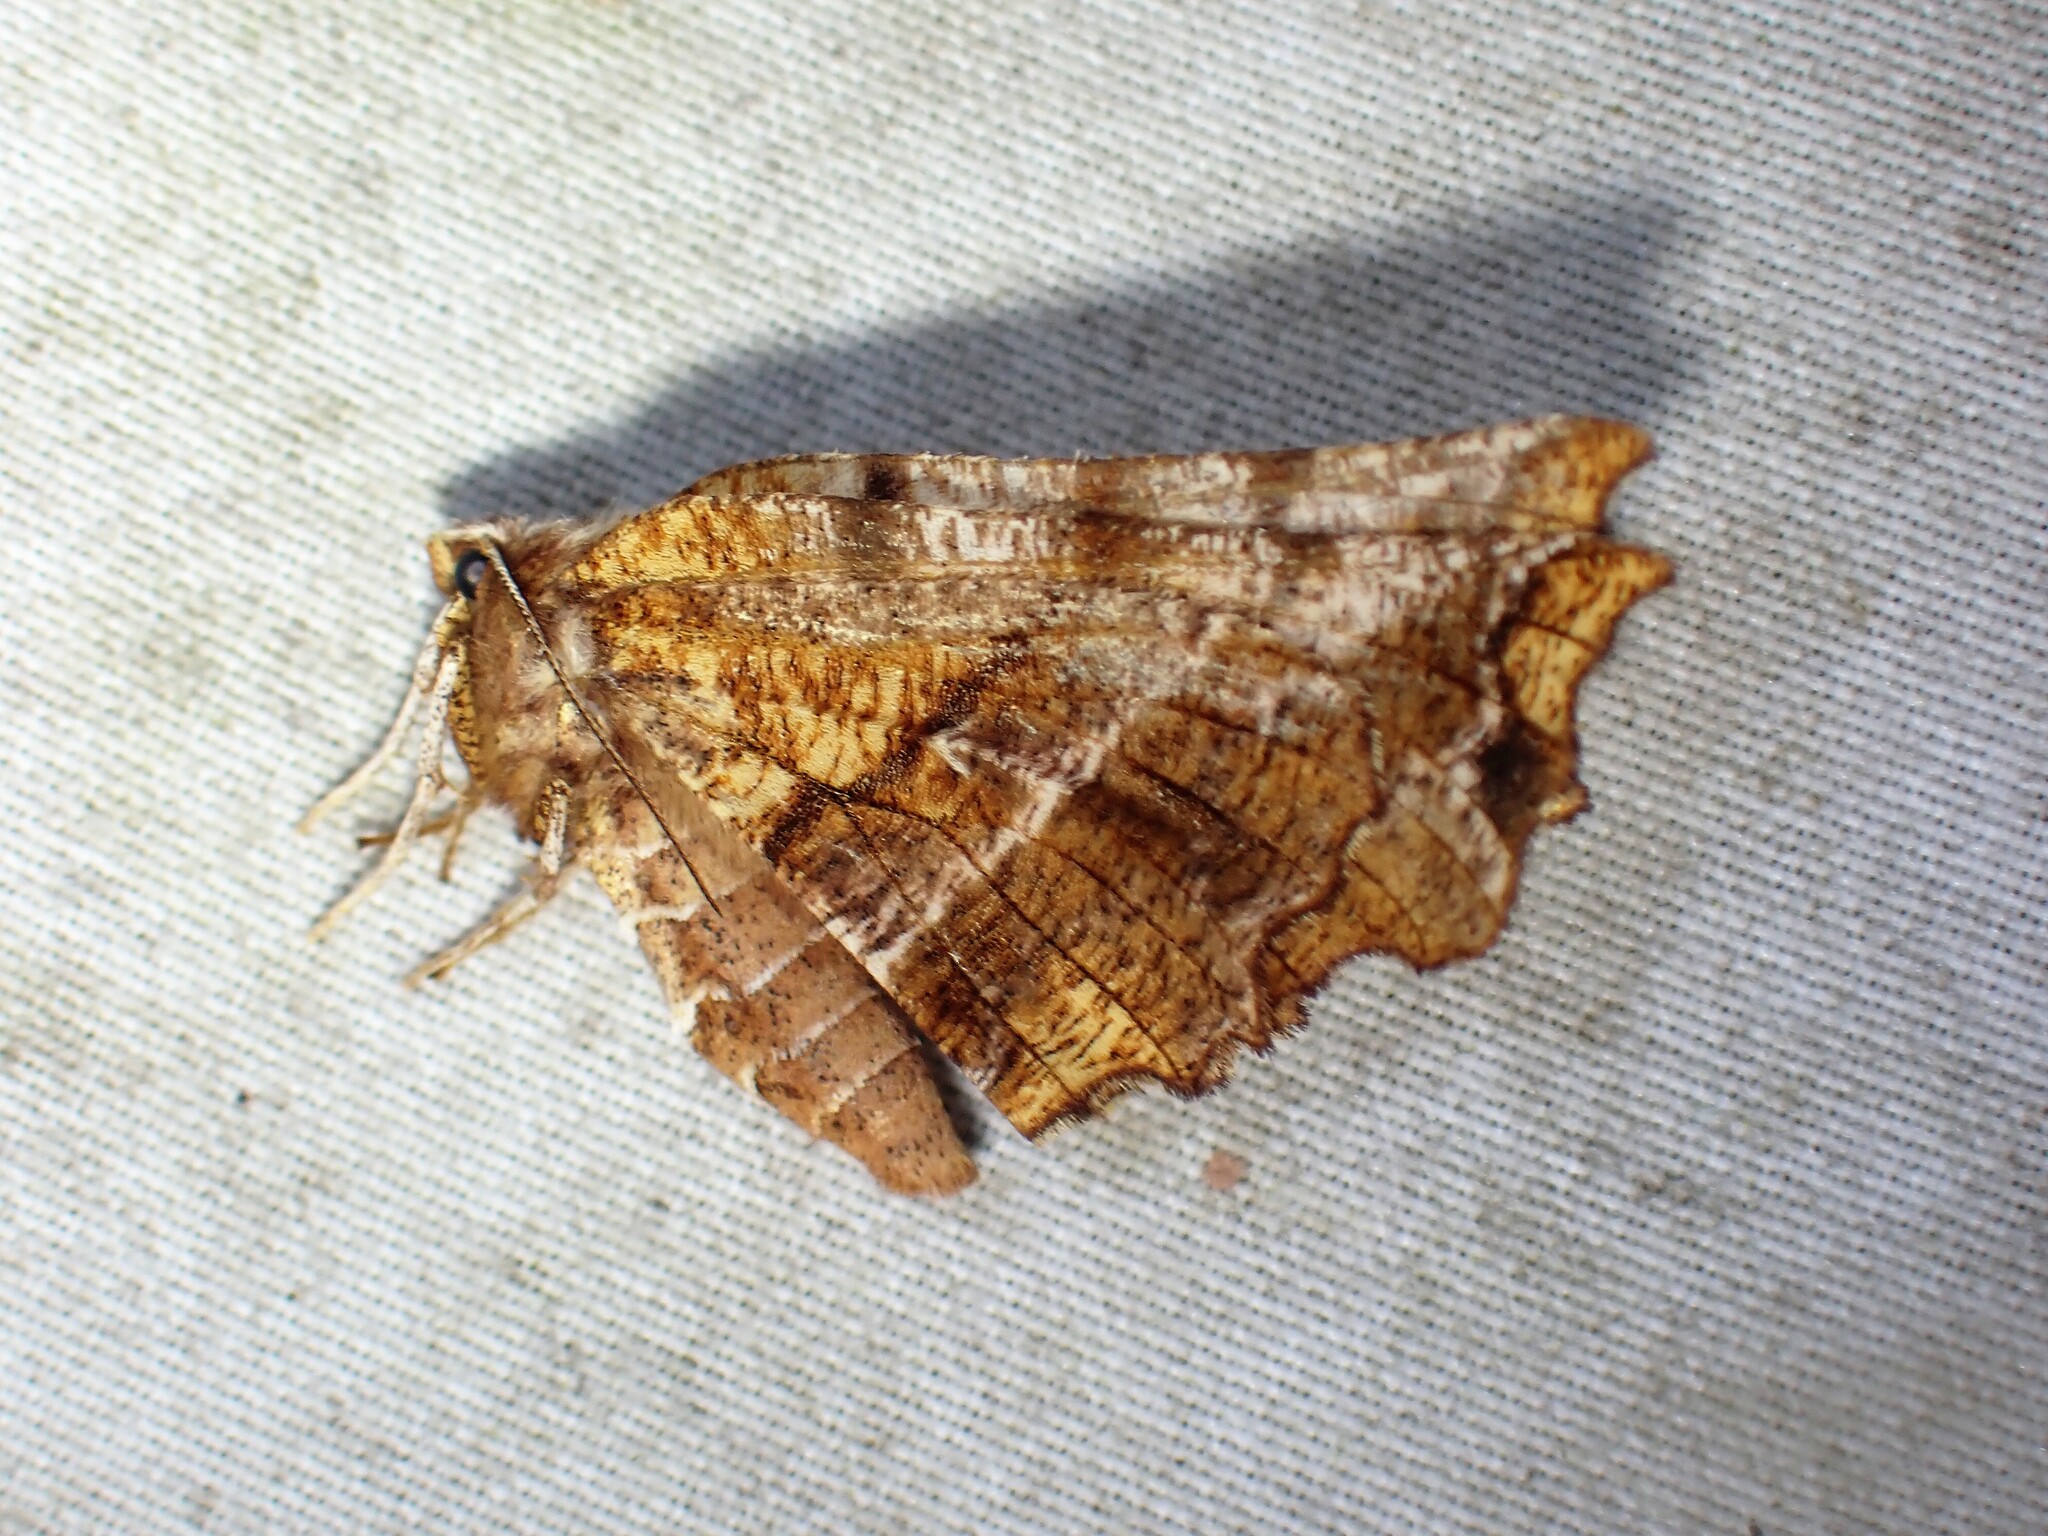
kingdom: Animalia
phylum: Arthropoda
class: Insecta
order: Lepidoptera
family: Geometridae
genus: Selenia
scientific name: Selenia alciphearia
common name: Brown-tipped thorn
